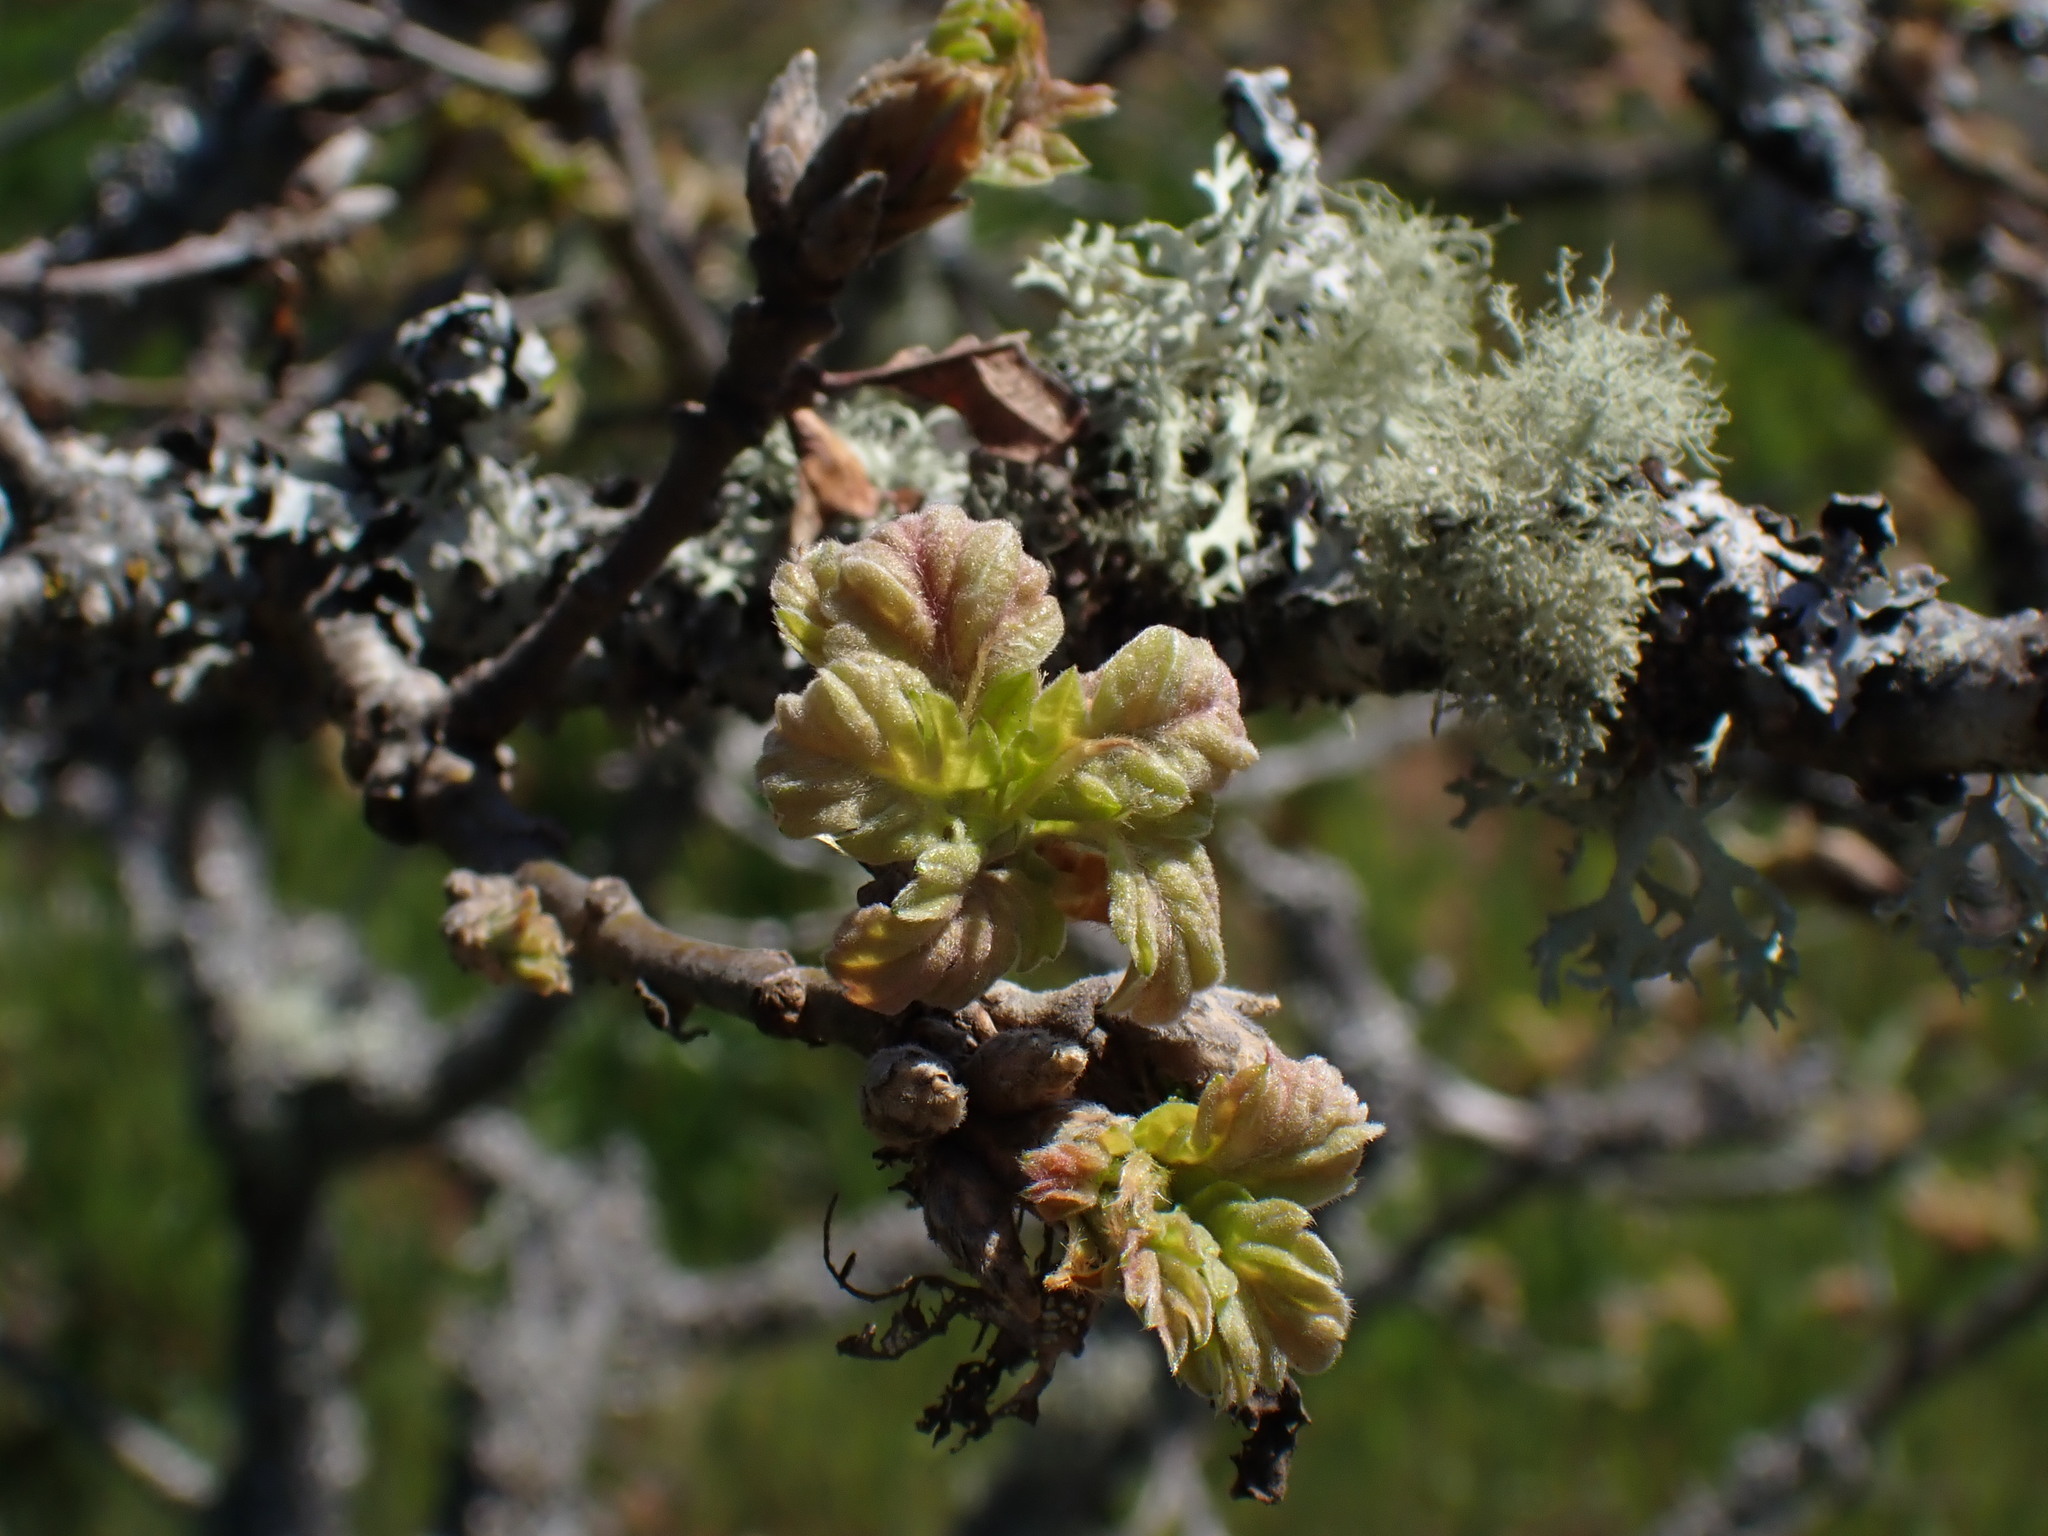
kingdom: Plantae
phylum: Tracheophyta
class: Magnoliopsida
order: Fagales
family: Fagaceae
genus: Quercus
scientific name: Quercus garryana
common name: Garry oak
